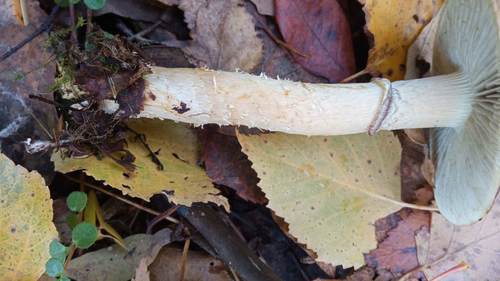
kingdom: Fungi
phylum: Basidiomycota
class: Agaricomycetes
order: Agaricales
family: Strophariaceae
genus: Stropharia
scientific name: Stropharia hornemannii
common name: Conifer roundhead
